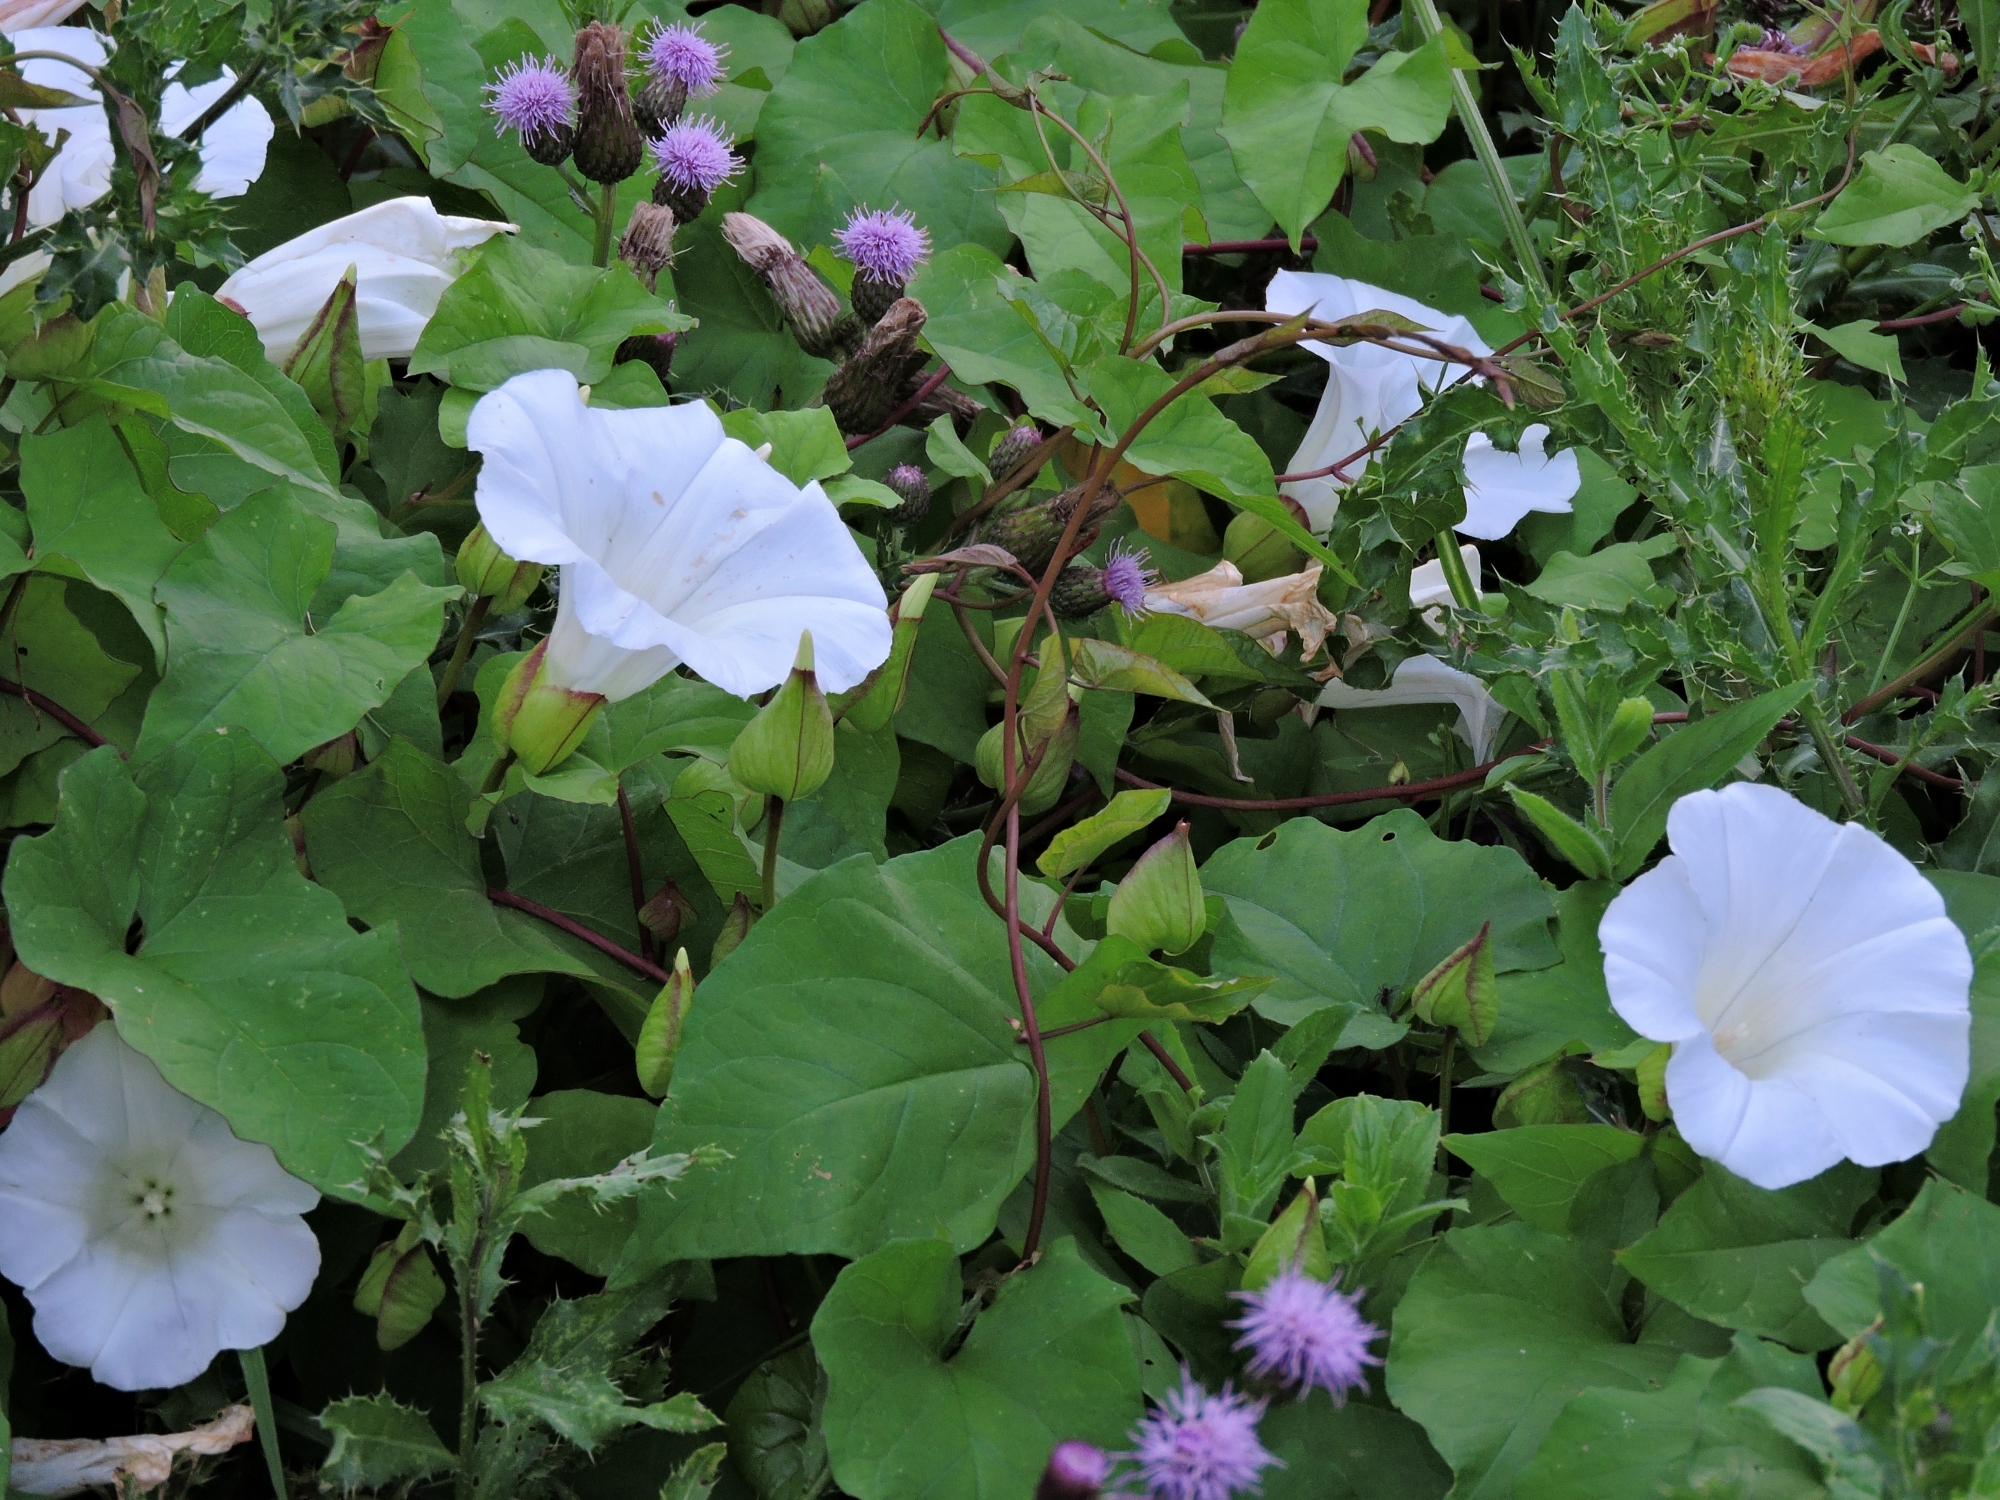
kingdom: Plantae
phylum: Tracheophyta
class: Magnoliopsida
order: Solanales
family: Convolvulaceae
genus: Calystegia
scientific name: Calystegia silvatica
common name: Large bindweed
